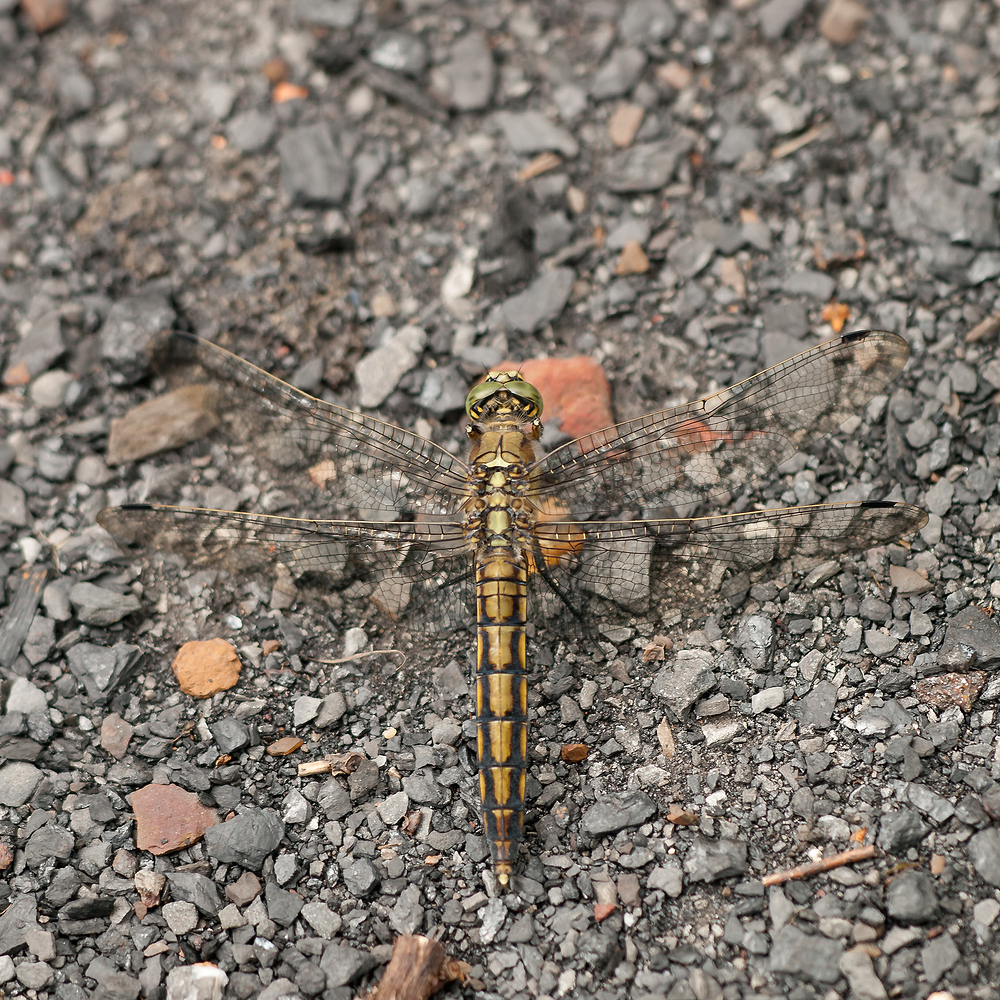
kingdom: Animalia
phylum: Arthropoda
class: Insecta
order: Odonata
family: Libellulidae
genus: Orthetrum
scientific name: Orthetrum cancellatum
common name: Black-tailed skimmer
